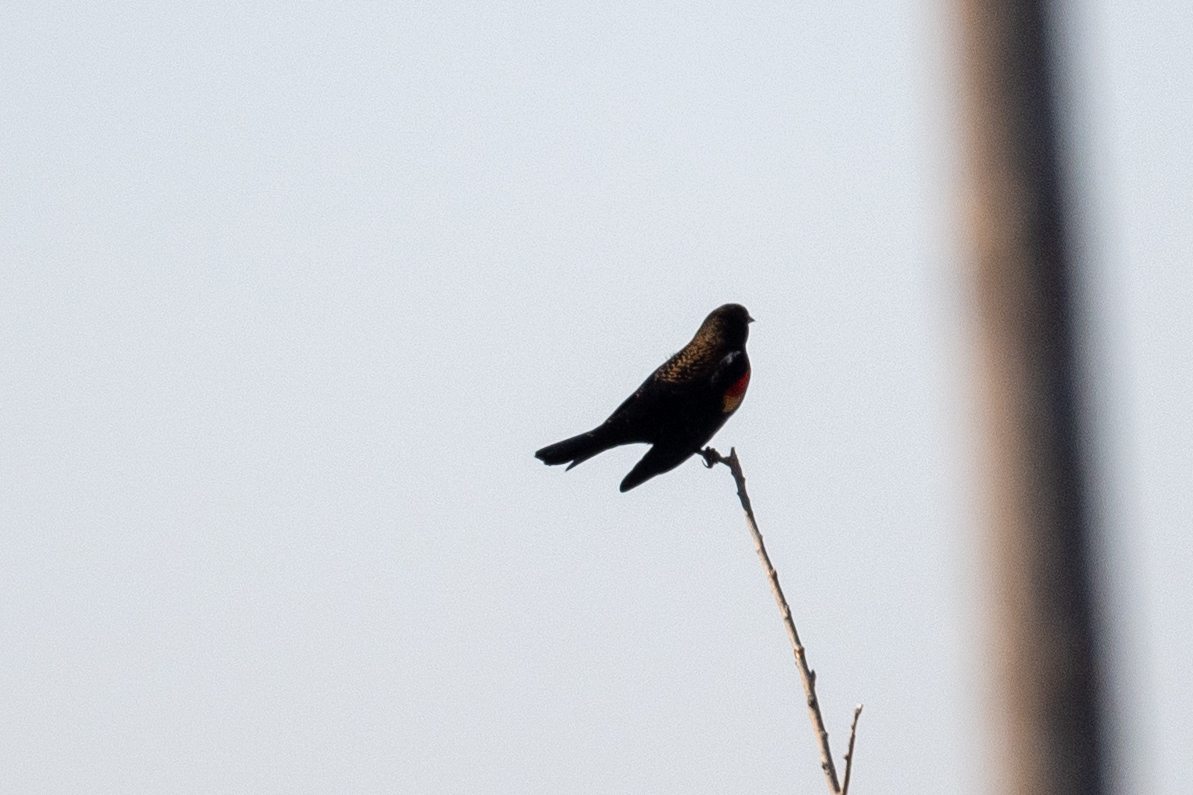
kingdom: Animalia
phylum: Chordata
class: Aves
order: Passeriformes
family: Icteridae
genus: Agelaius
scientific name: Agelaius phoeniceus
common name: Red-winged blackbird
